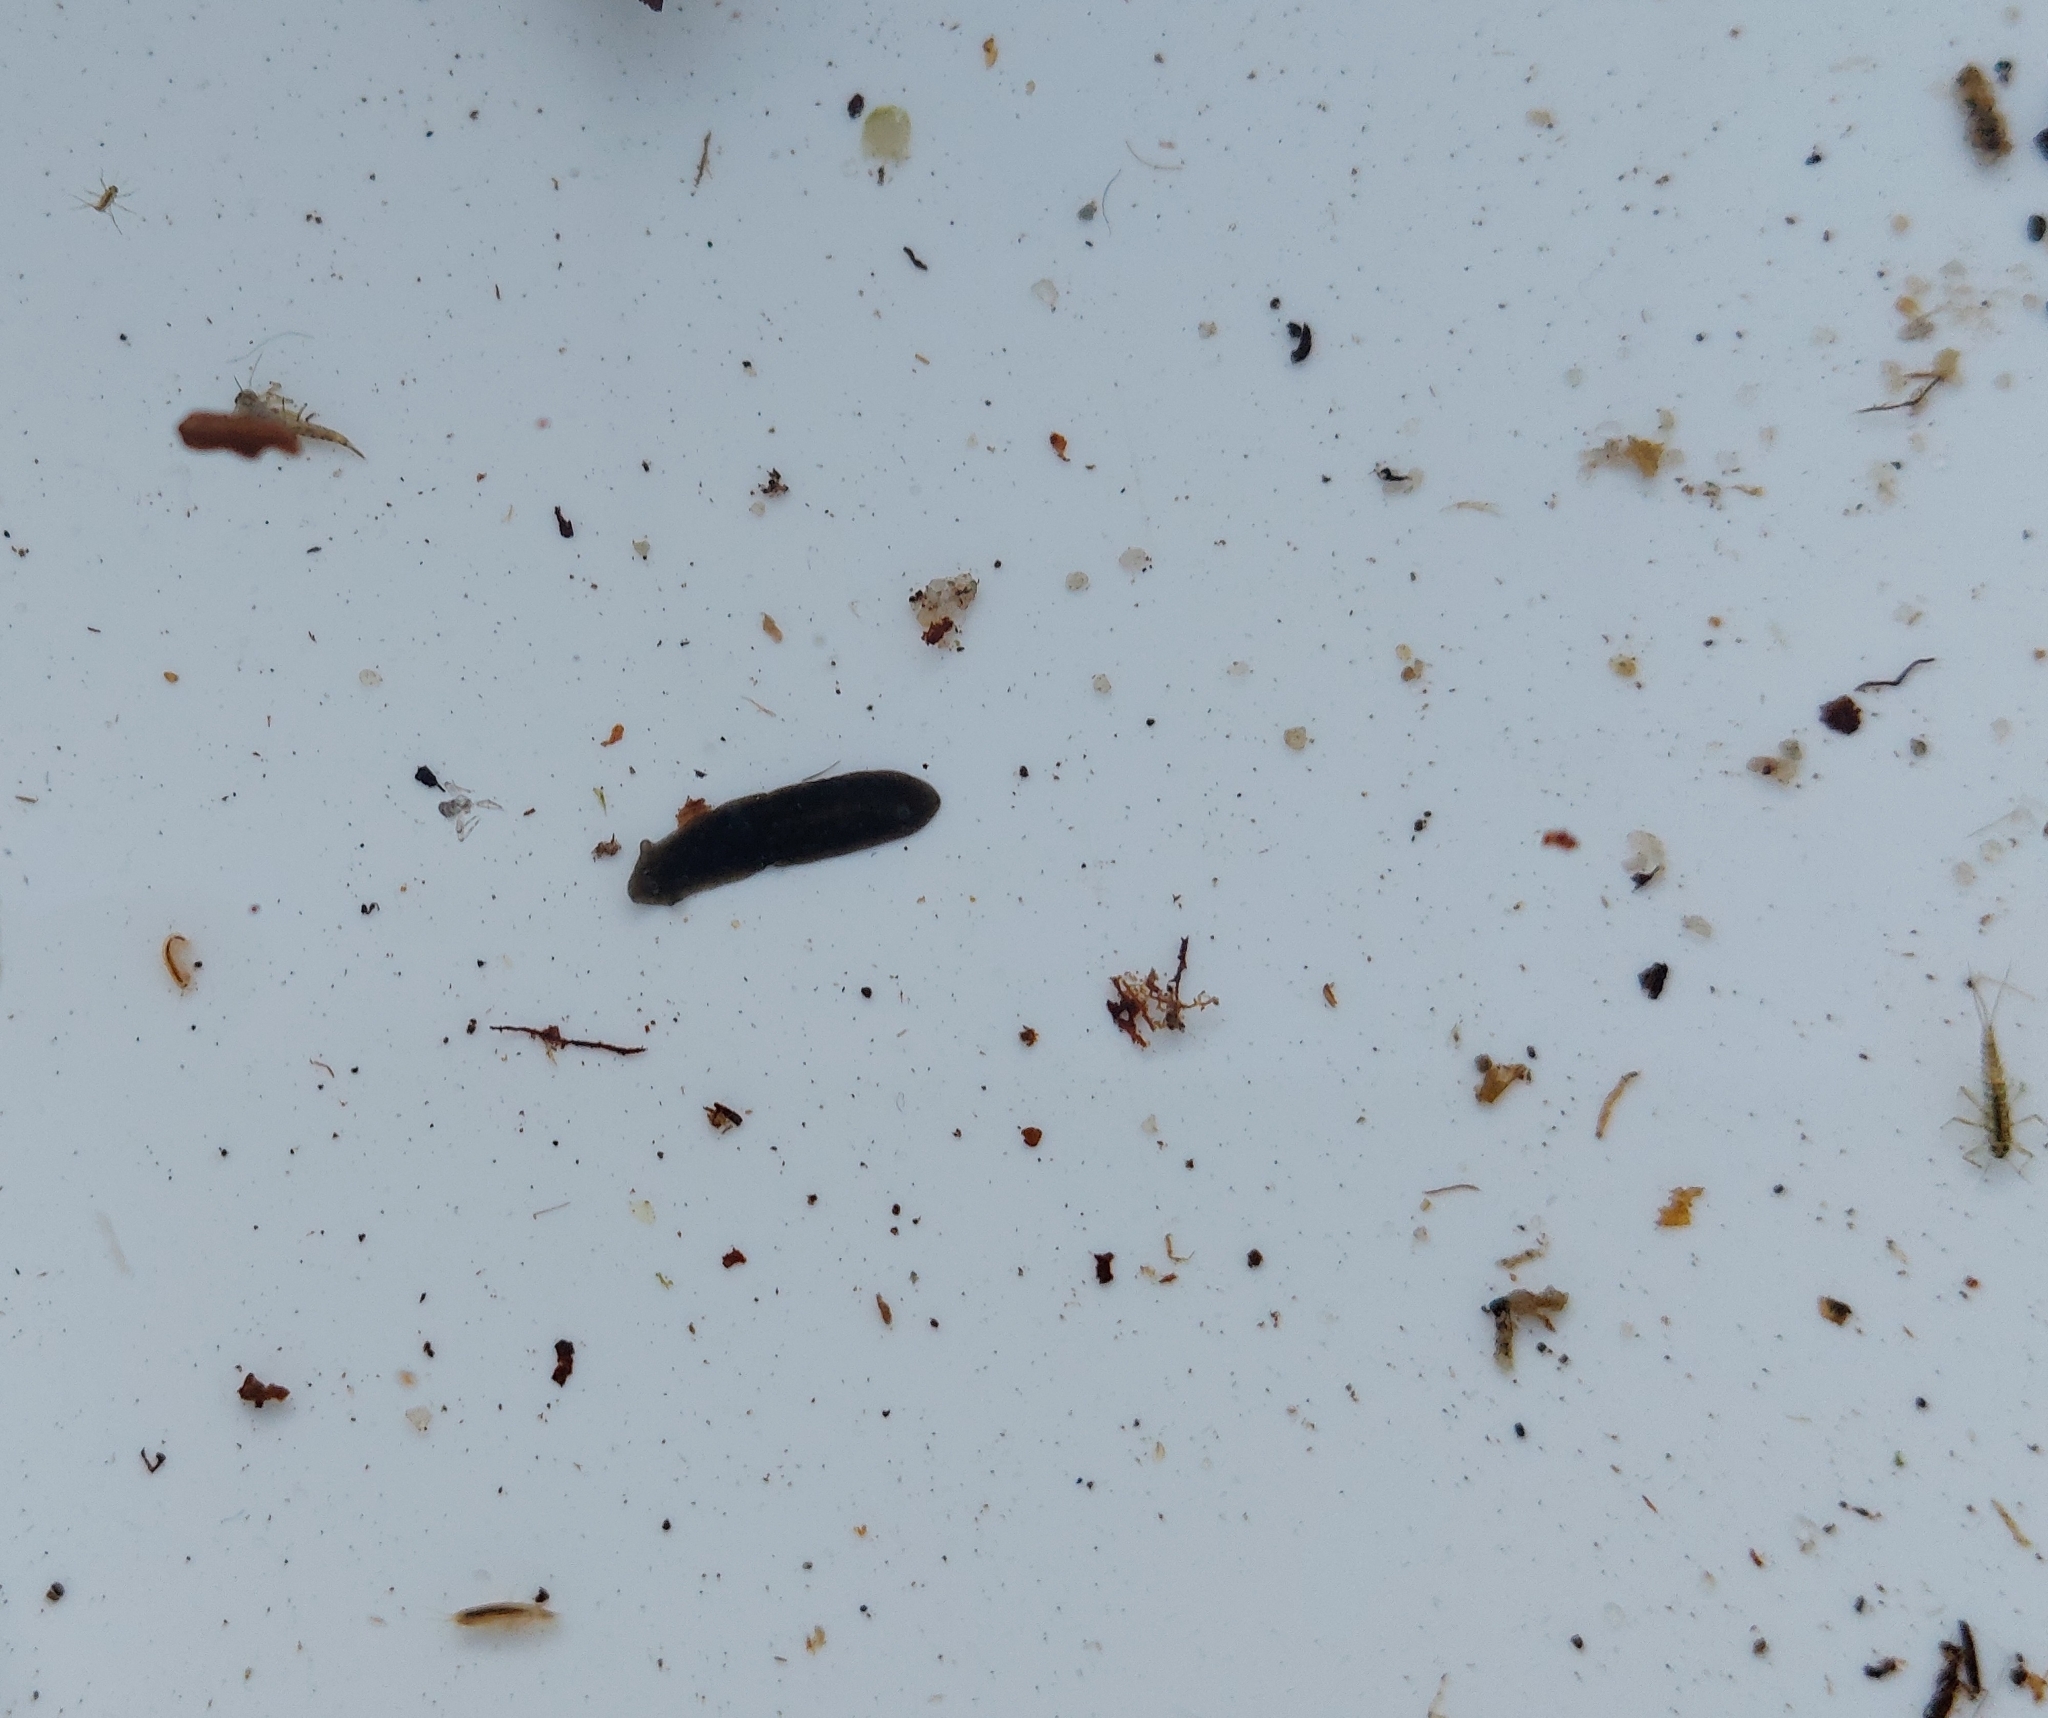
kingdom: Animalia
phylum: Platyhelminthes
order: Tricladida
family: Dugesiidae
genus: Dugesia
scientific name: Dugesia gonocephala
